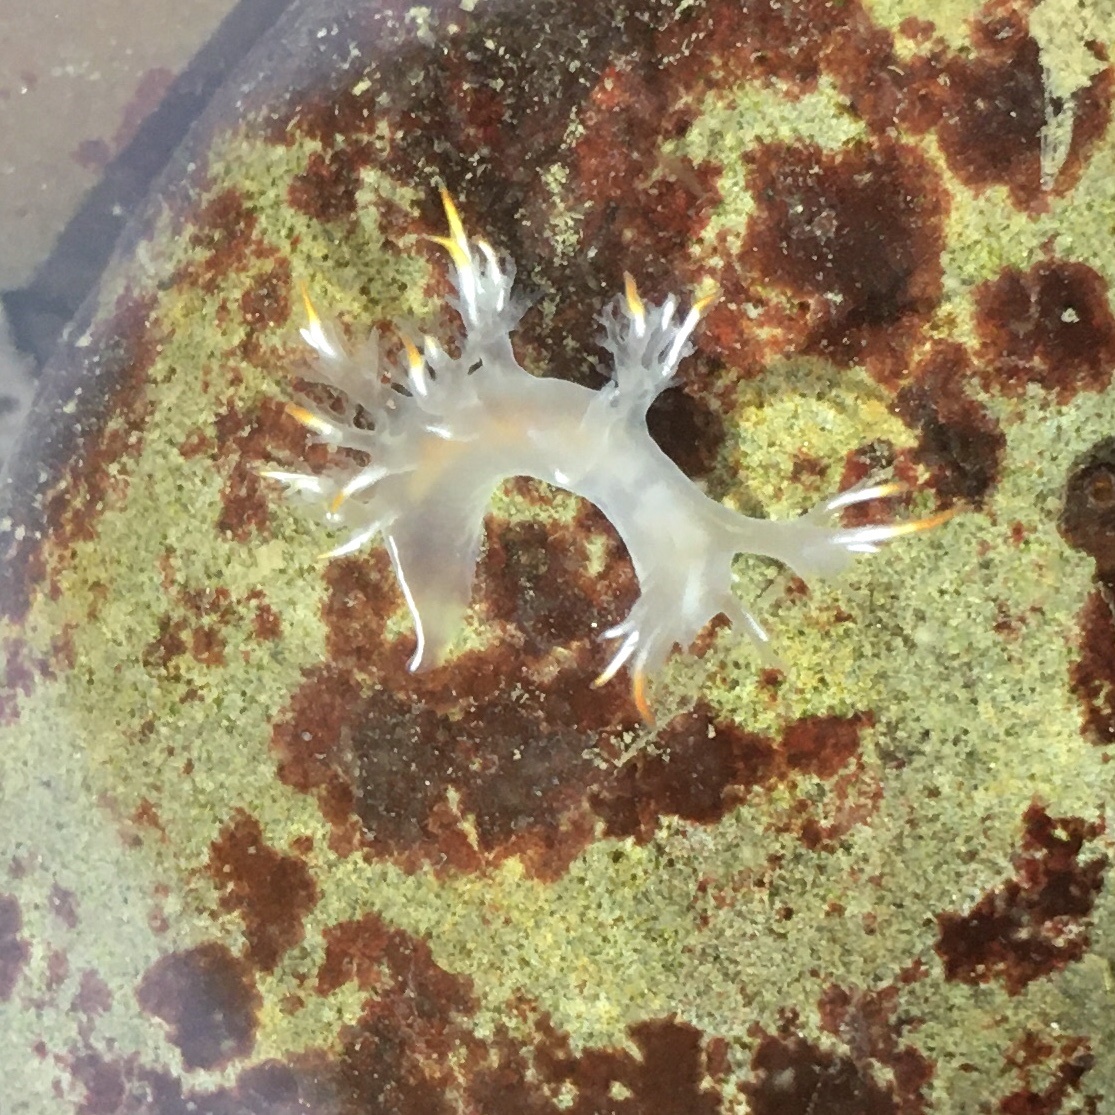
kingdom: Animalia
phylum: Mollusca
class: Gastropoda
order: Nudibranchia
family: Dendronotidae
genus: Dendronotus
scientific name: Dendronotus albus
